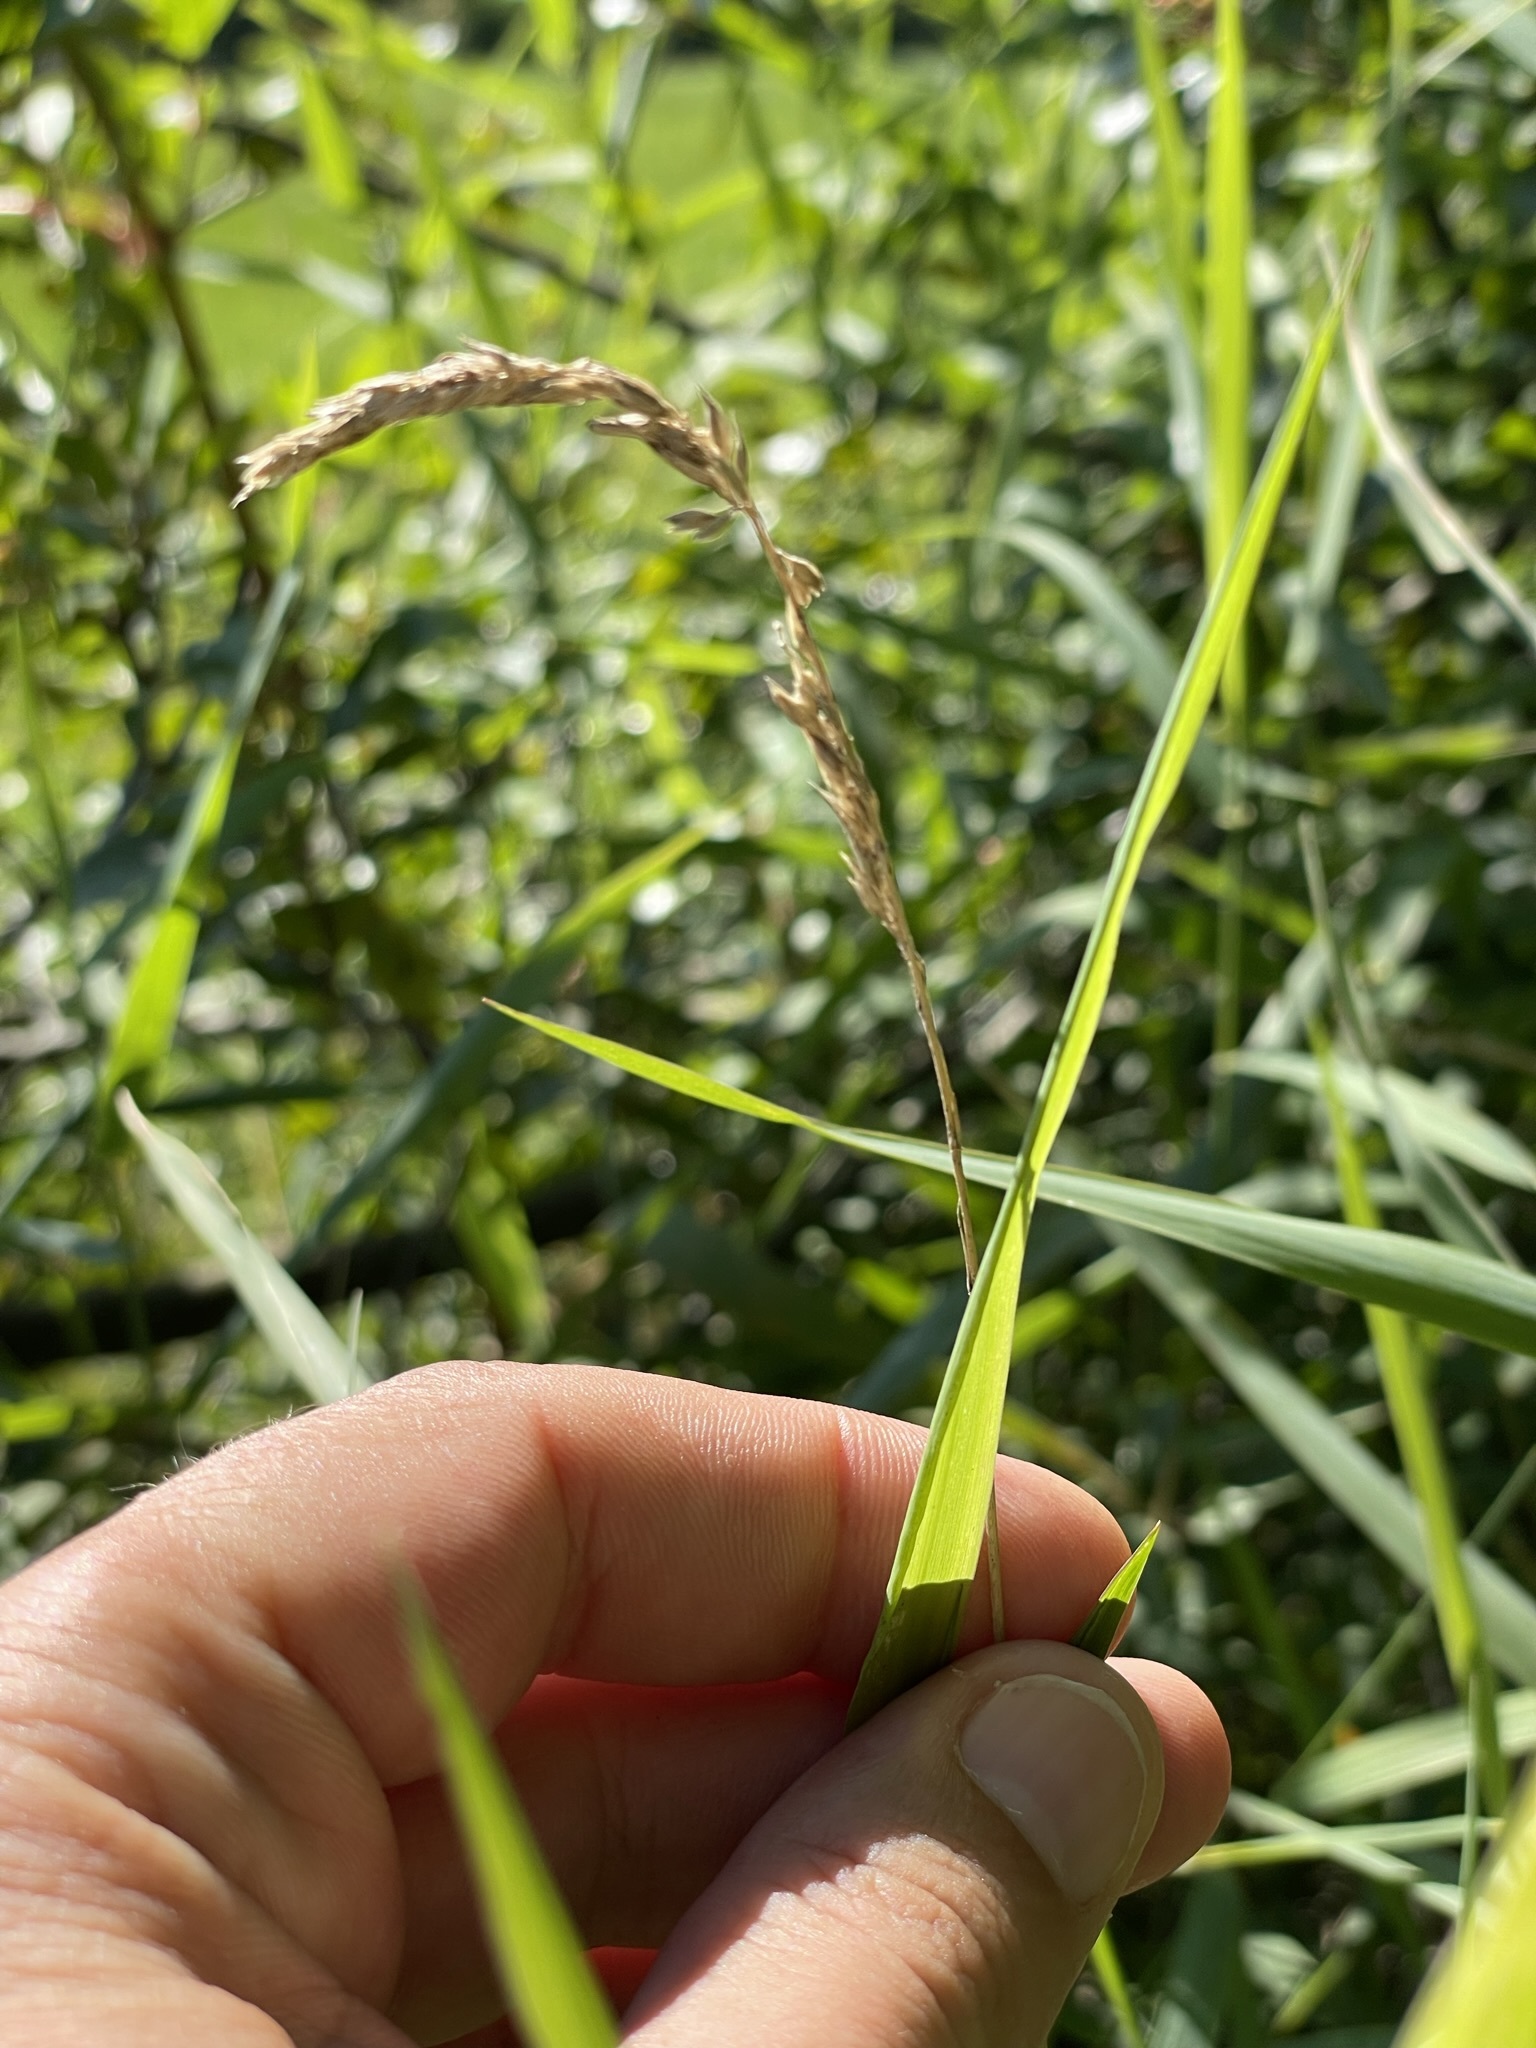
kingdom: Plantae
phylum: Tracheophyta
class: Liliopsida
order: Poales
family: Poaceae
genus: Phalaris
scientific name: Phalaris arundinacea
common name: Reed canary-grass
